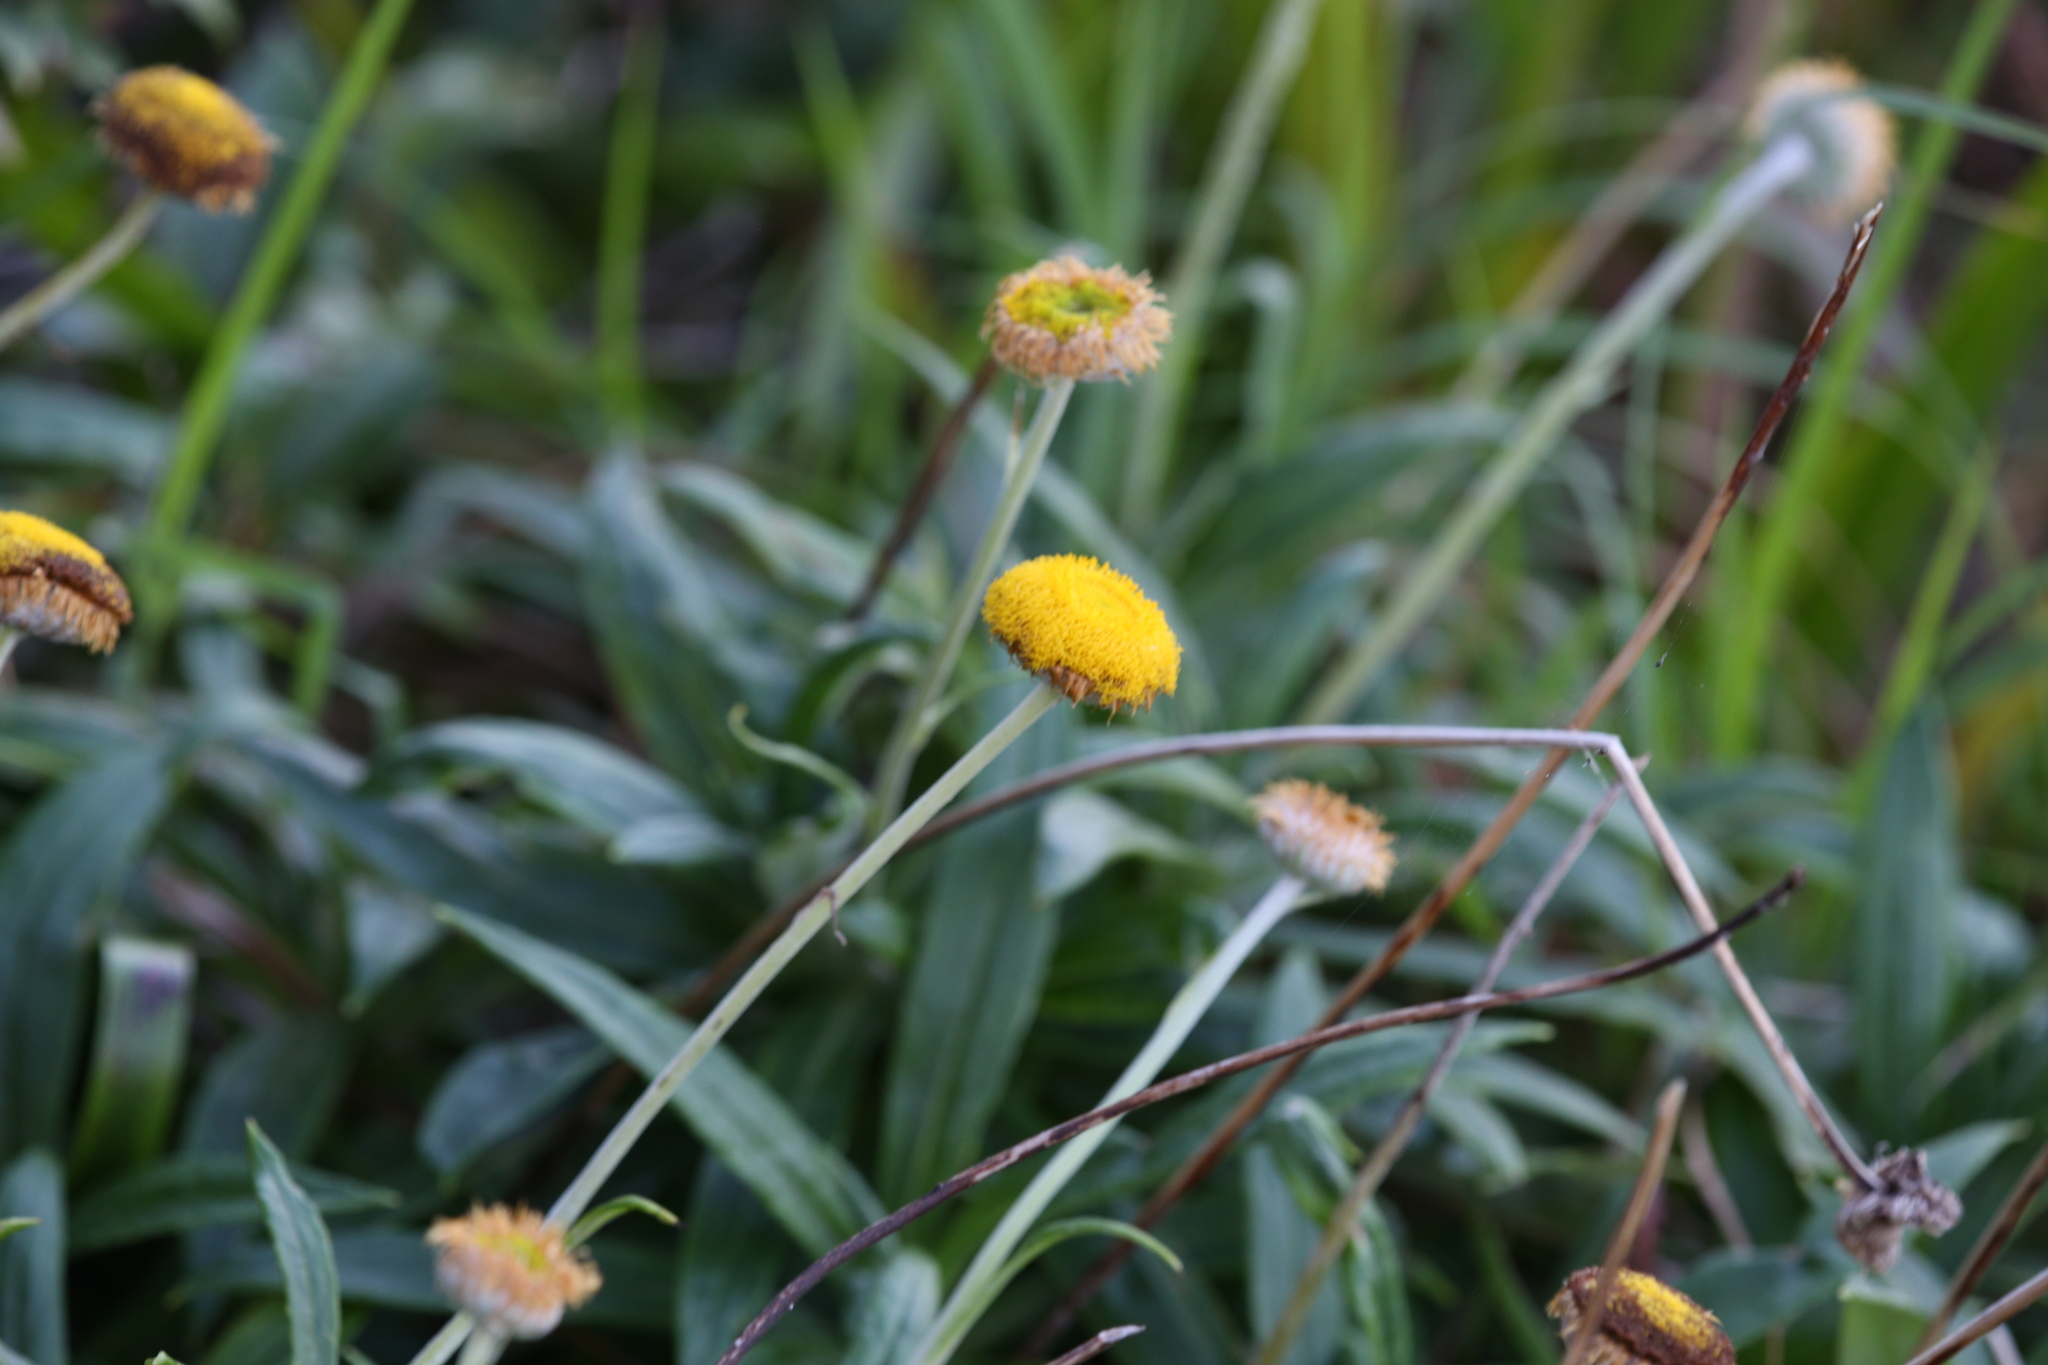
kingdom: Plantae
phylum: Tracheophyta
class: Magnoliopsida
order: Asterales
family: Asteraceae
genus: Coronidium
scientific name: Coronidium rupicola
